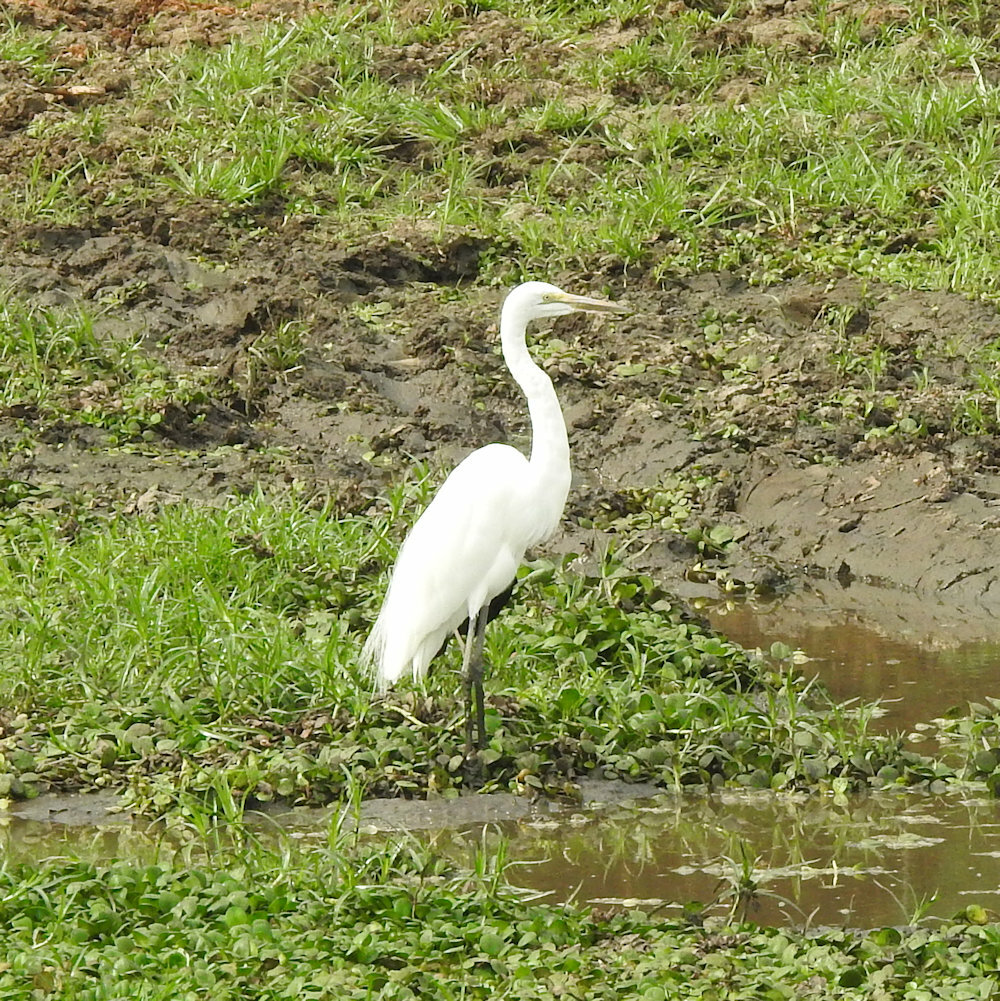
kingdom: Animalia
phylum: Chordata
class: Aves
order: Pelecaniformes
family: Ardeidae
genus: Ardea
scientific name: Ardea alba
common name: Great egret
